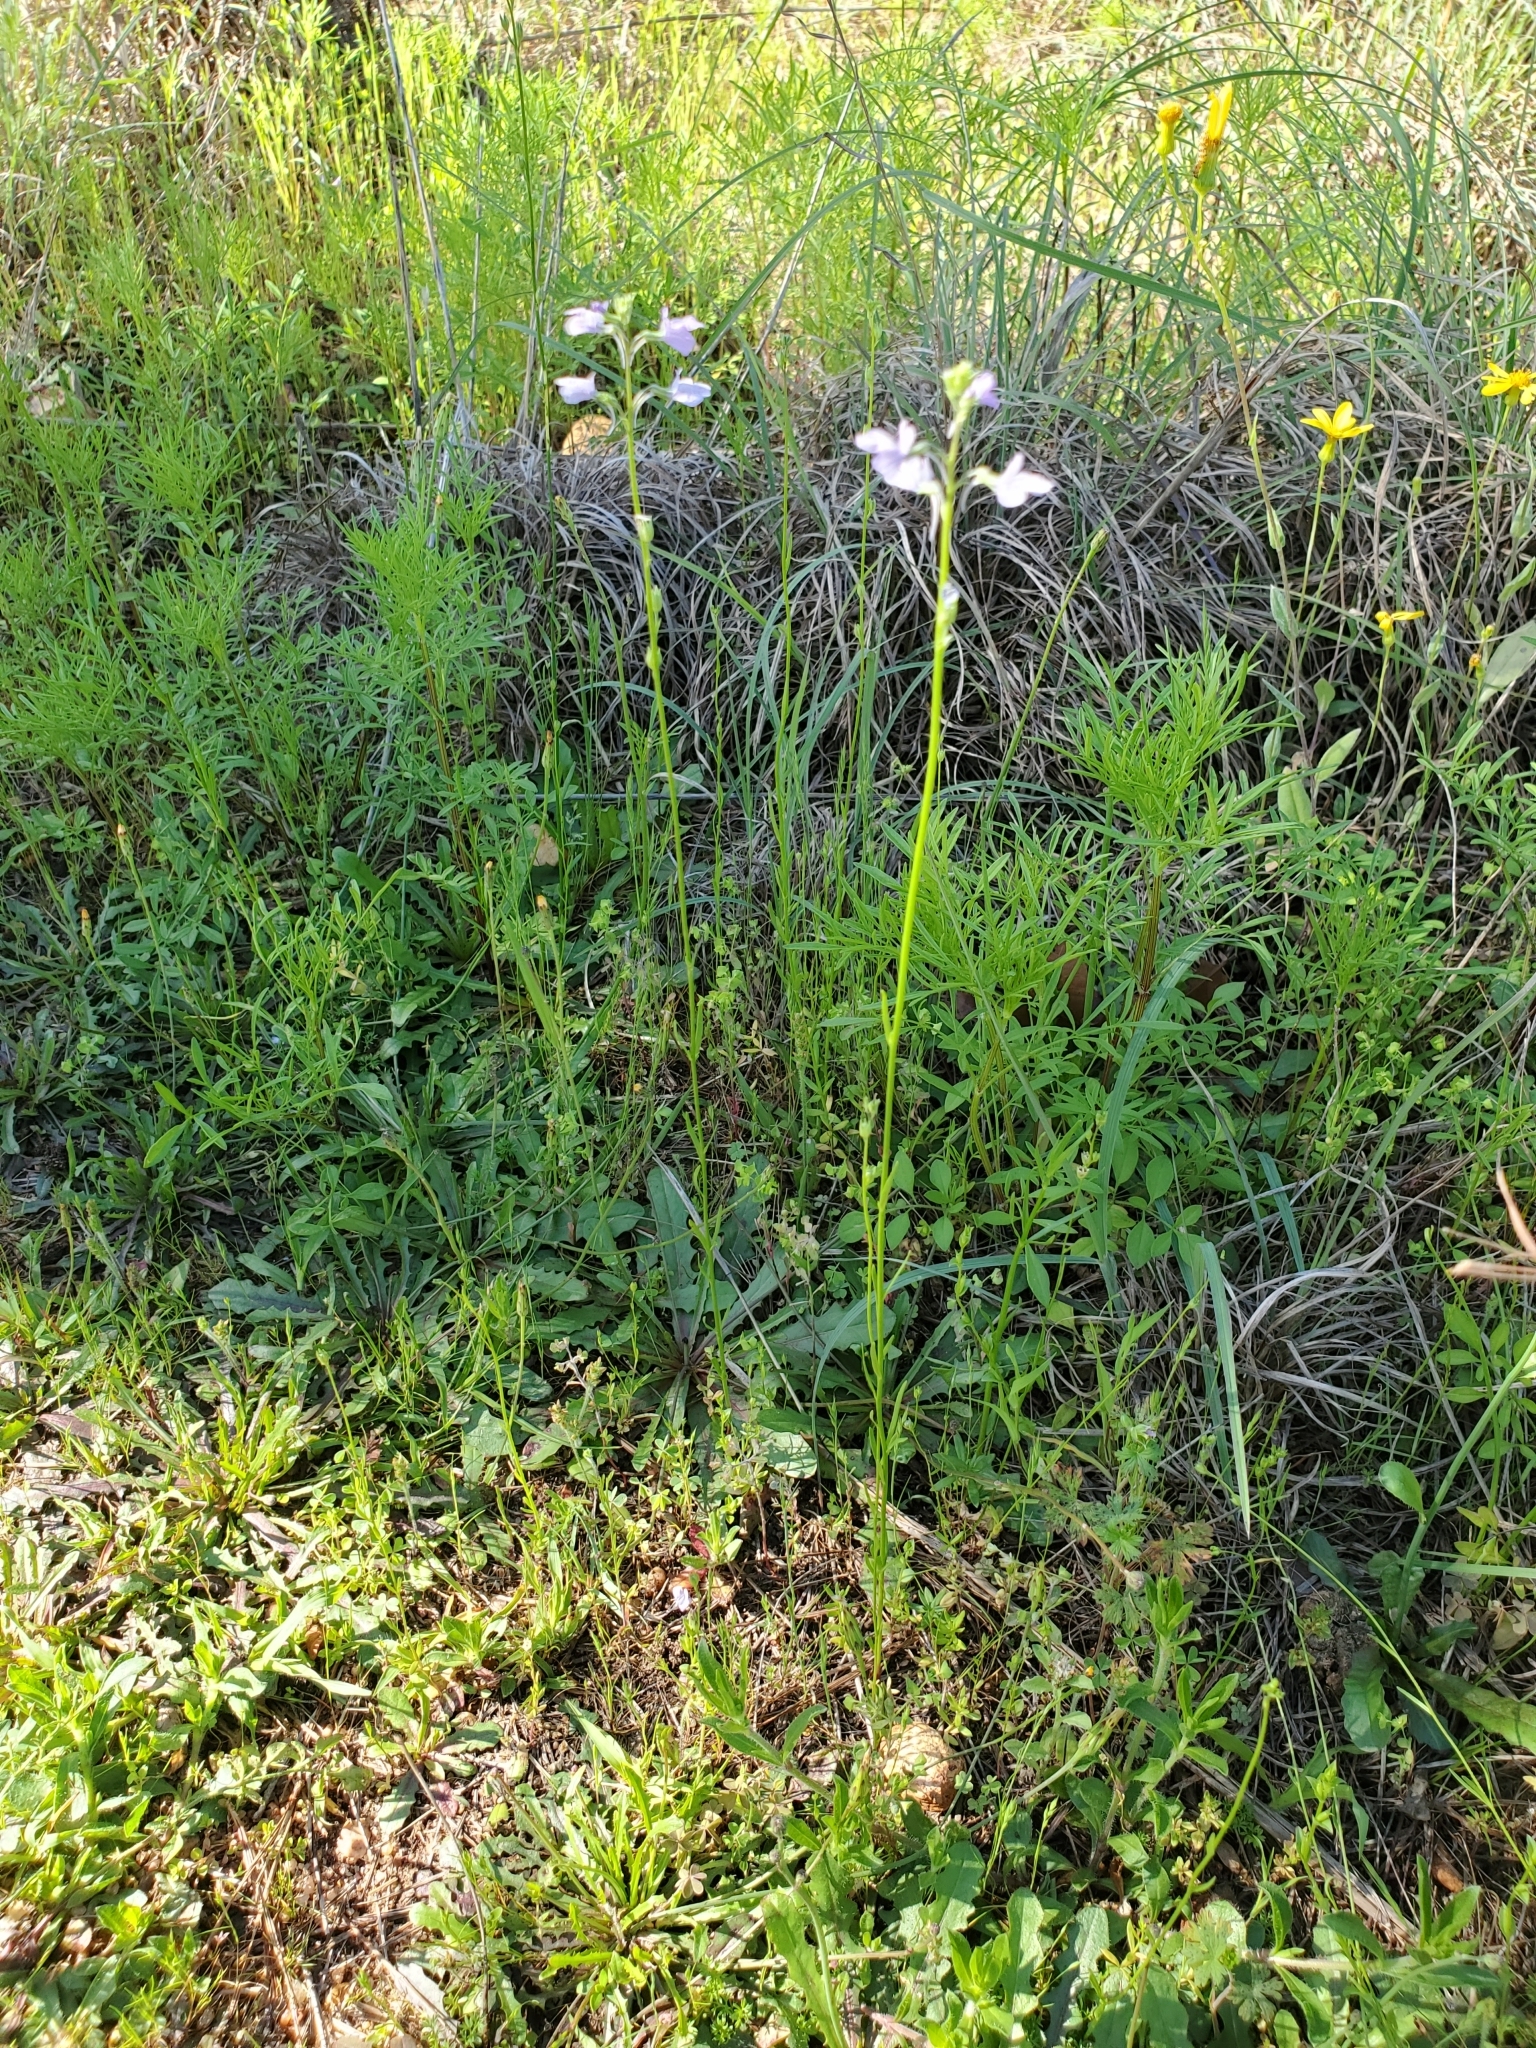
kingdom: Plantae
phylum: Tracheophyta
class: Magnoliopsida
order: Lamiales
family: Plantaginaceae
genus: Nuttallanthus
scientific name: Nuttallanthus texanus
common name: Texas toadflax
